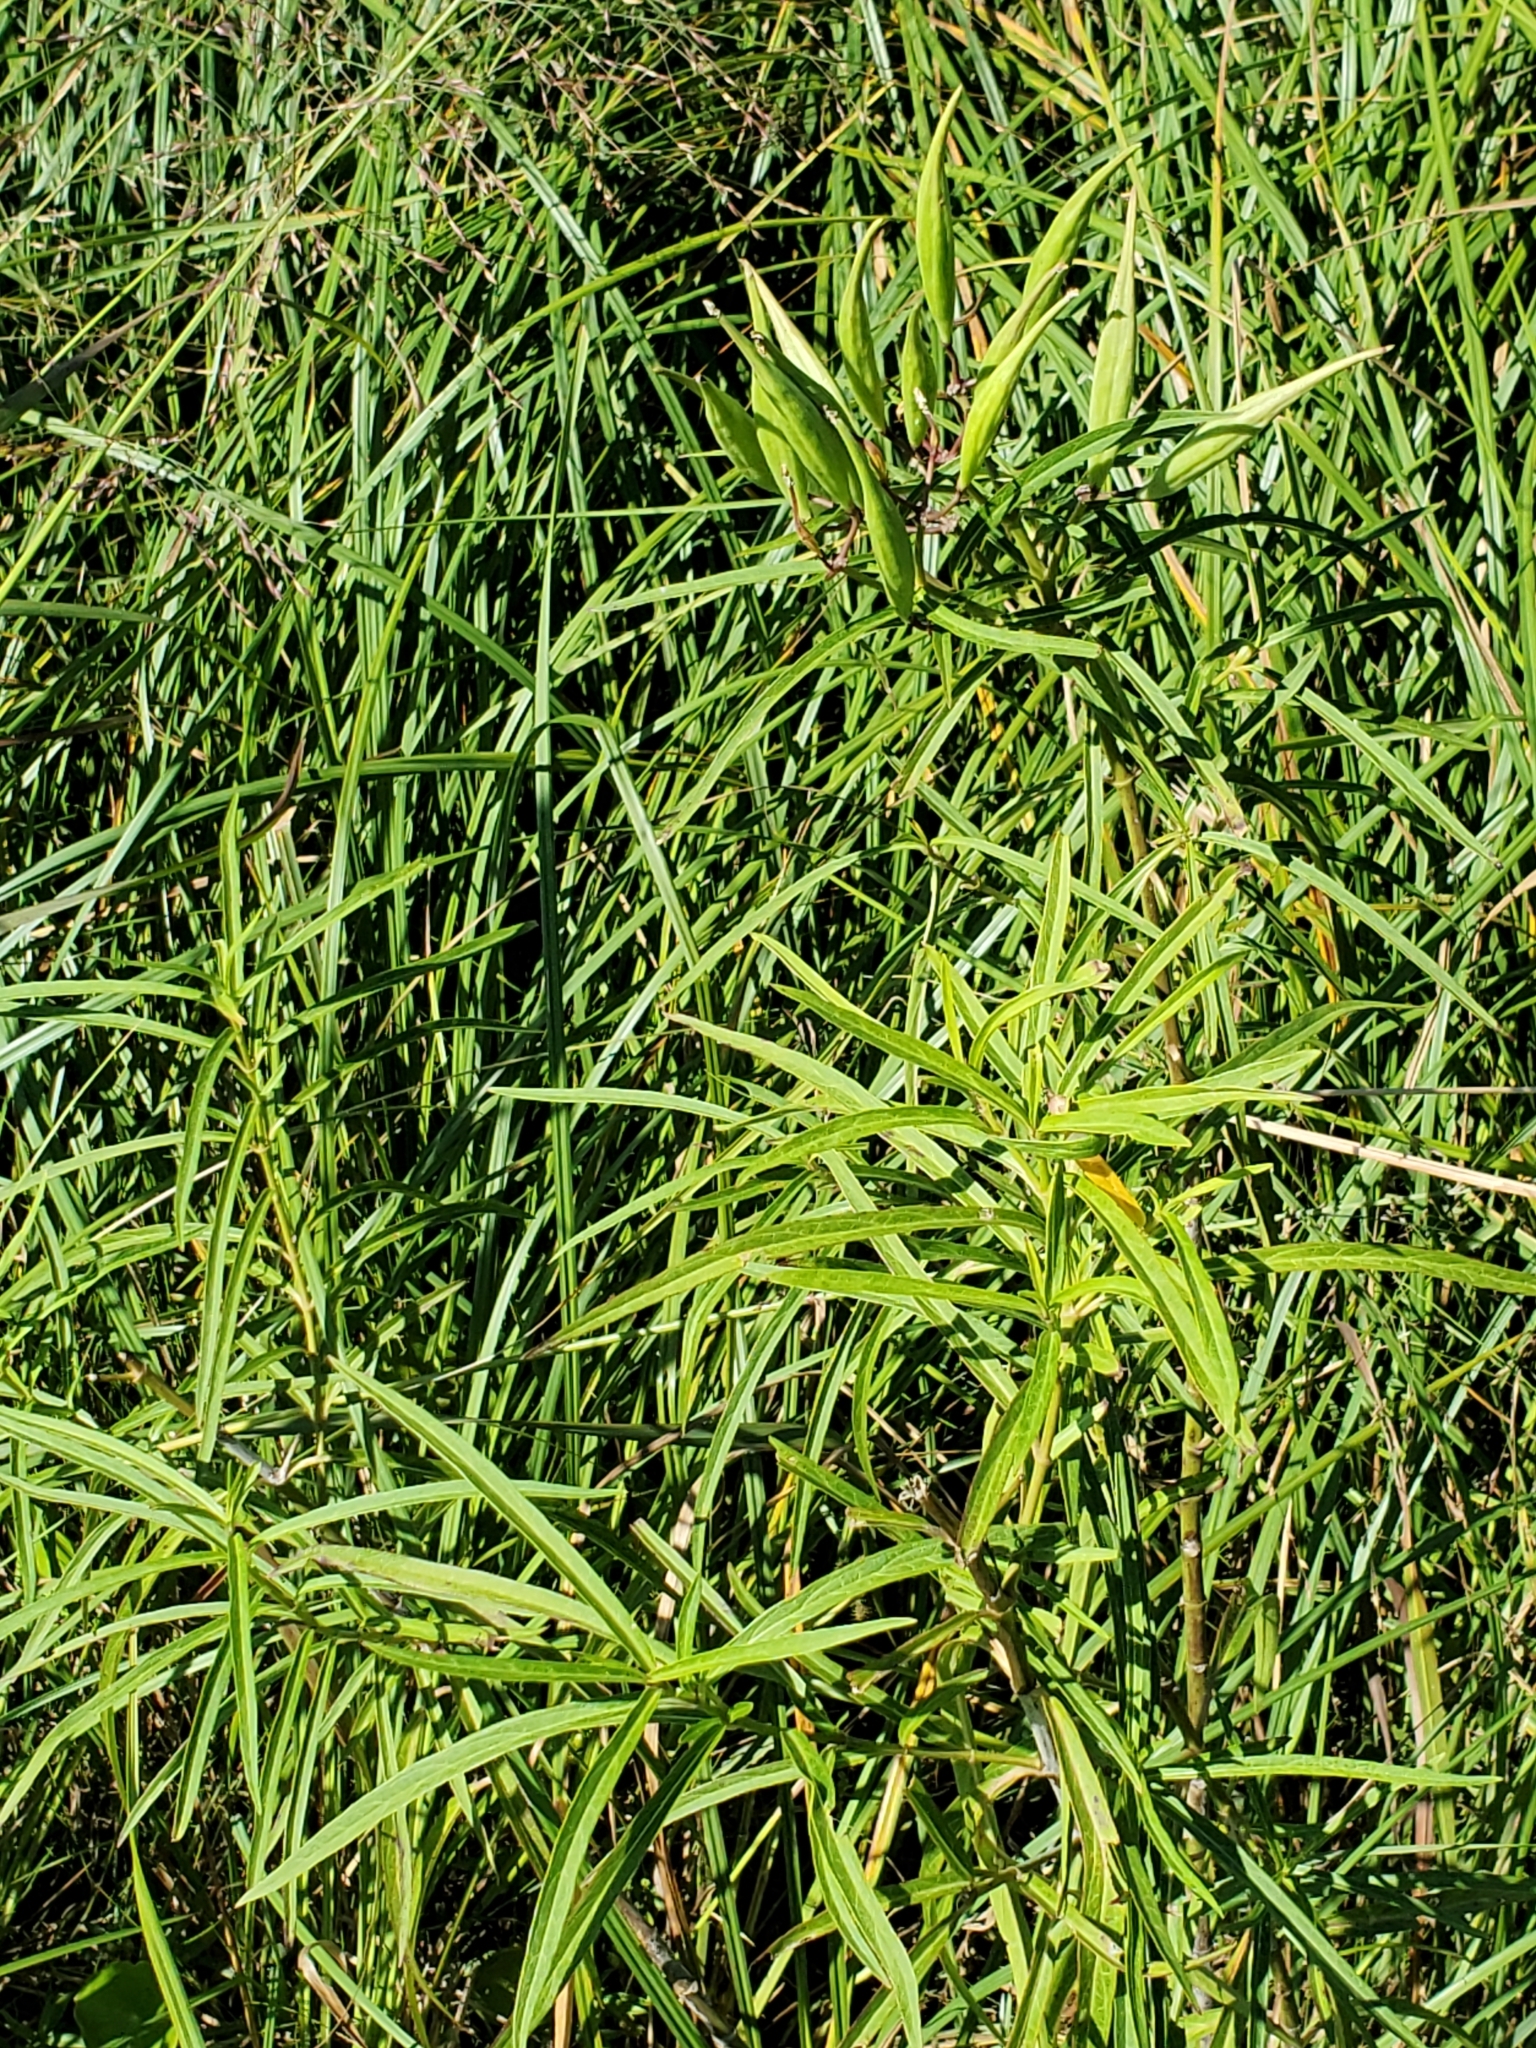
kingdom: Plantae
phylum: Tracheophyta
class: Magnoliopsida
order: Gentianales
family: Apocynaceae
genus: Asclepias
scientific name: Asclepias incarnata
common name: Swamp milkweed
